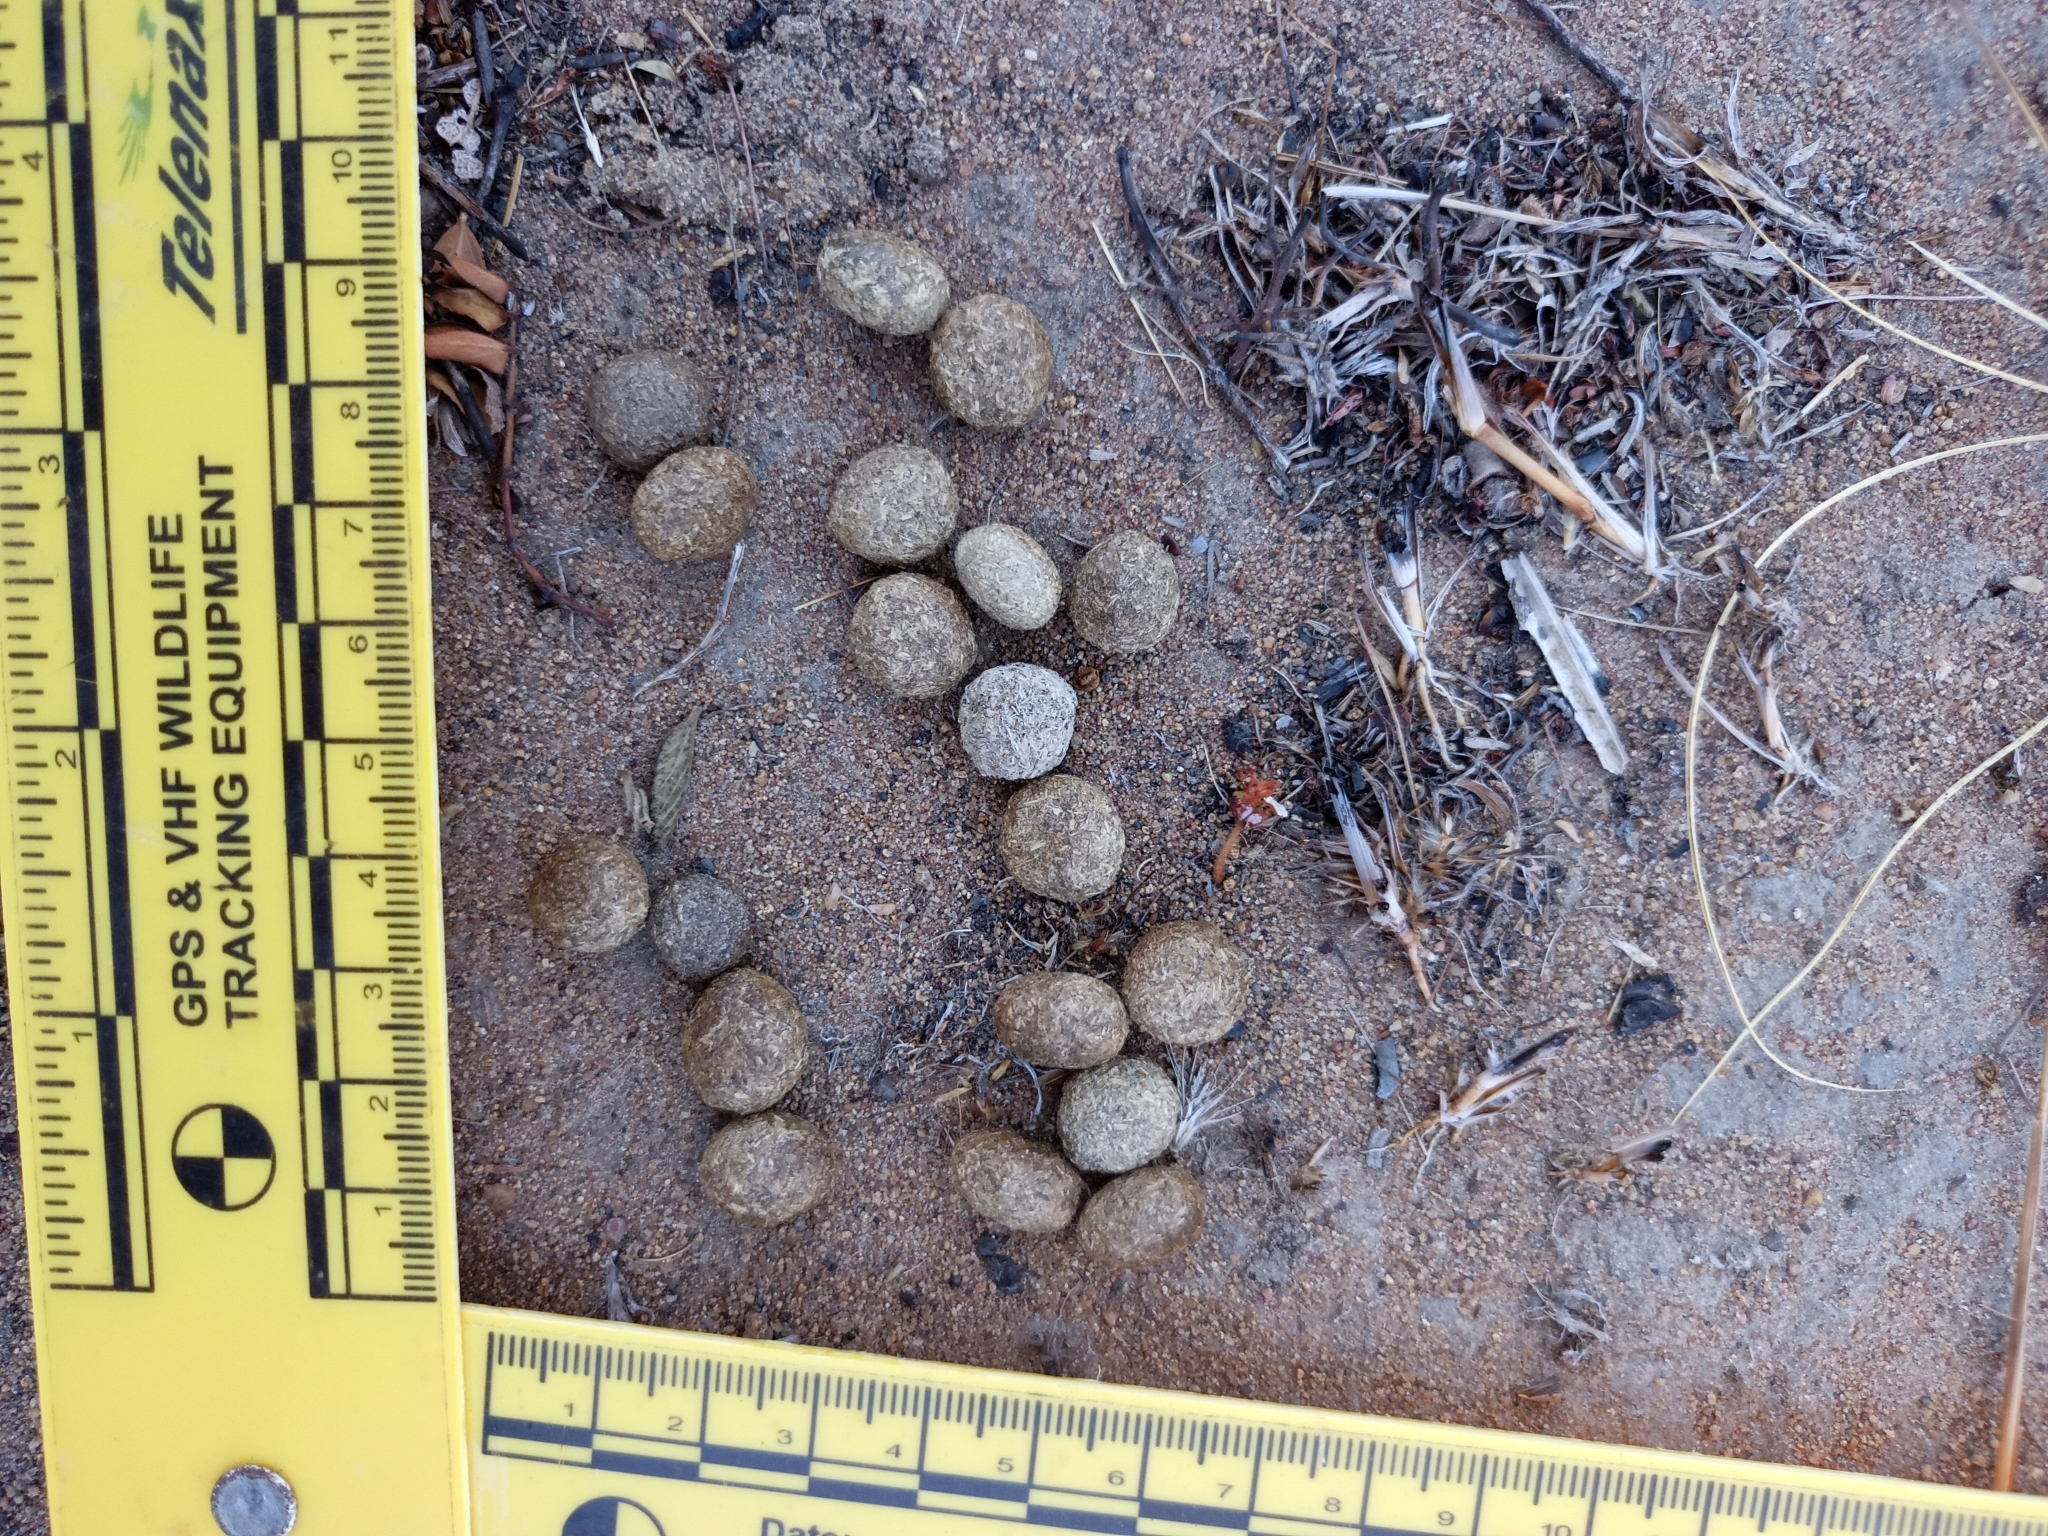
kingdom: Animalia
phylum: Chordata
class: Mammalia
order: Lagomorpha
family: Leporidae
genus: Lepus
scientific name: Lepus flavigularis
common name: Tehuantepec jackrabbit
